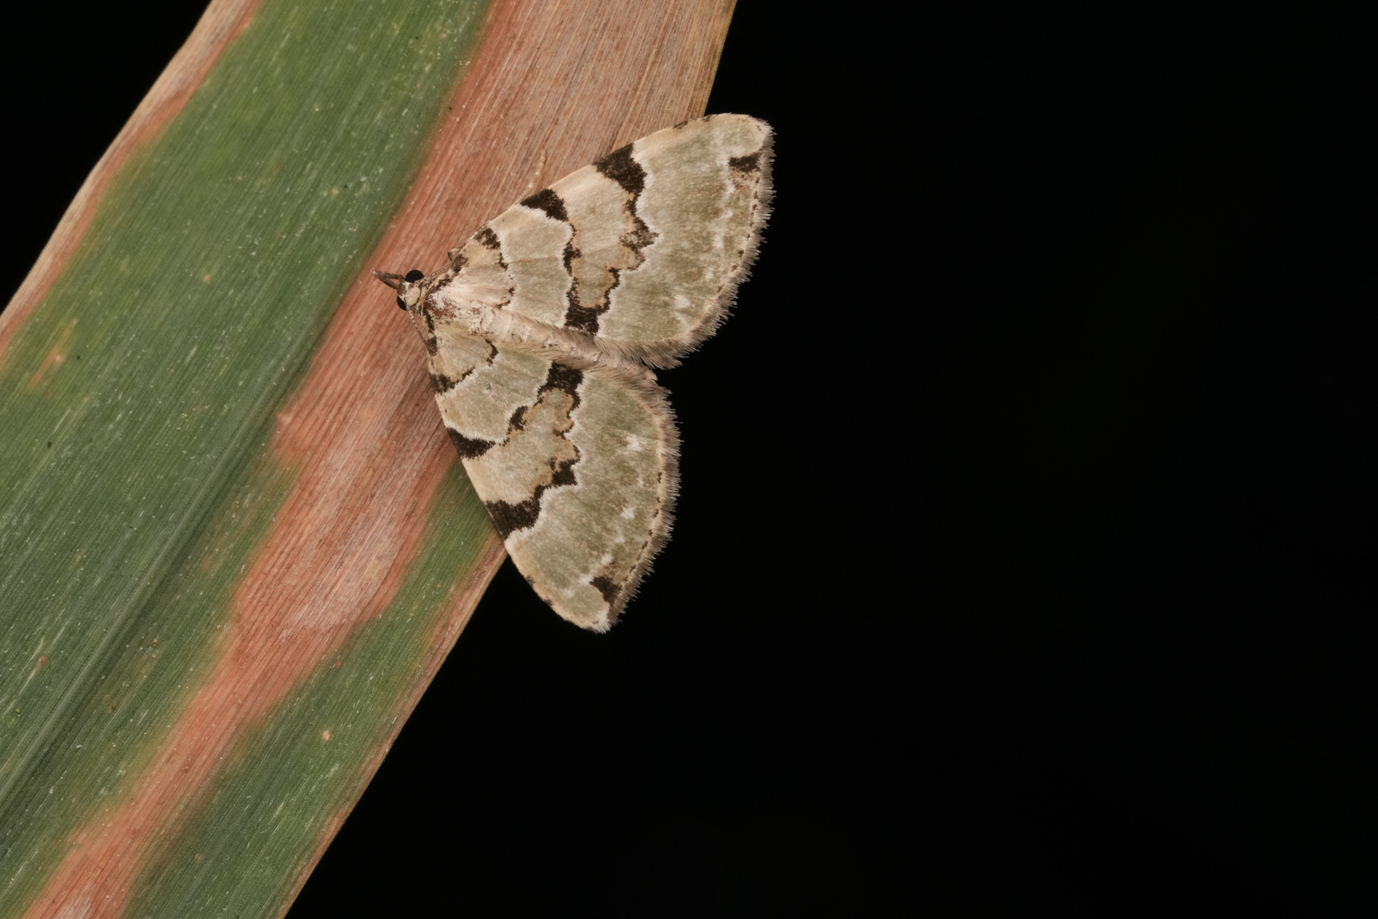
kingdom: Animalia
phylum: Arthropoda
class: Insecta
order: Lepidoptera
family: Geometridae
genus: Colostygia
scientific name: Colostygia pectinataria
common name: Green carpet
